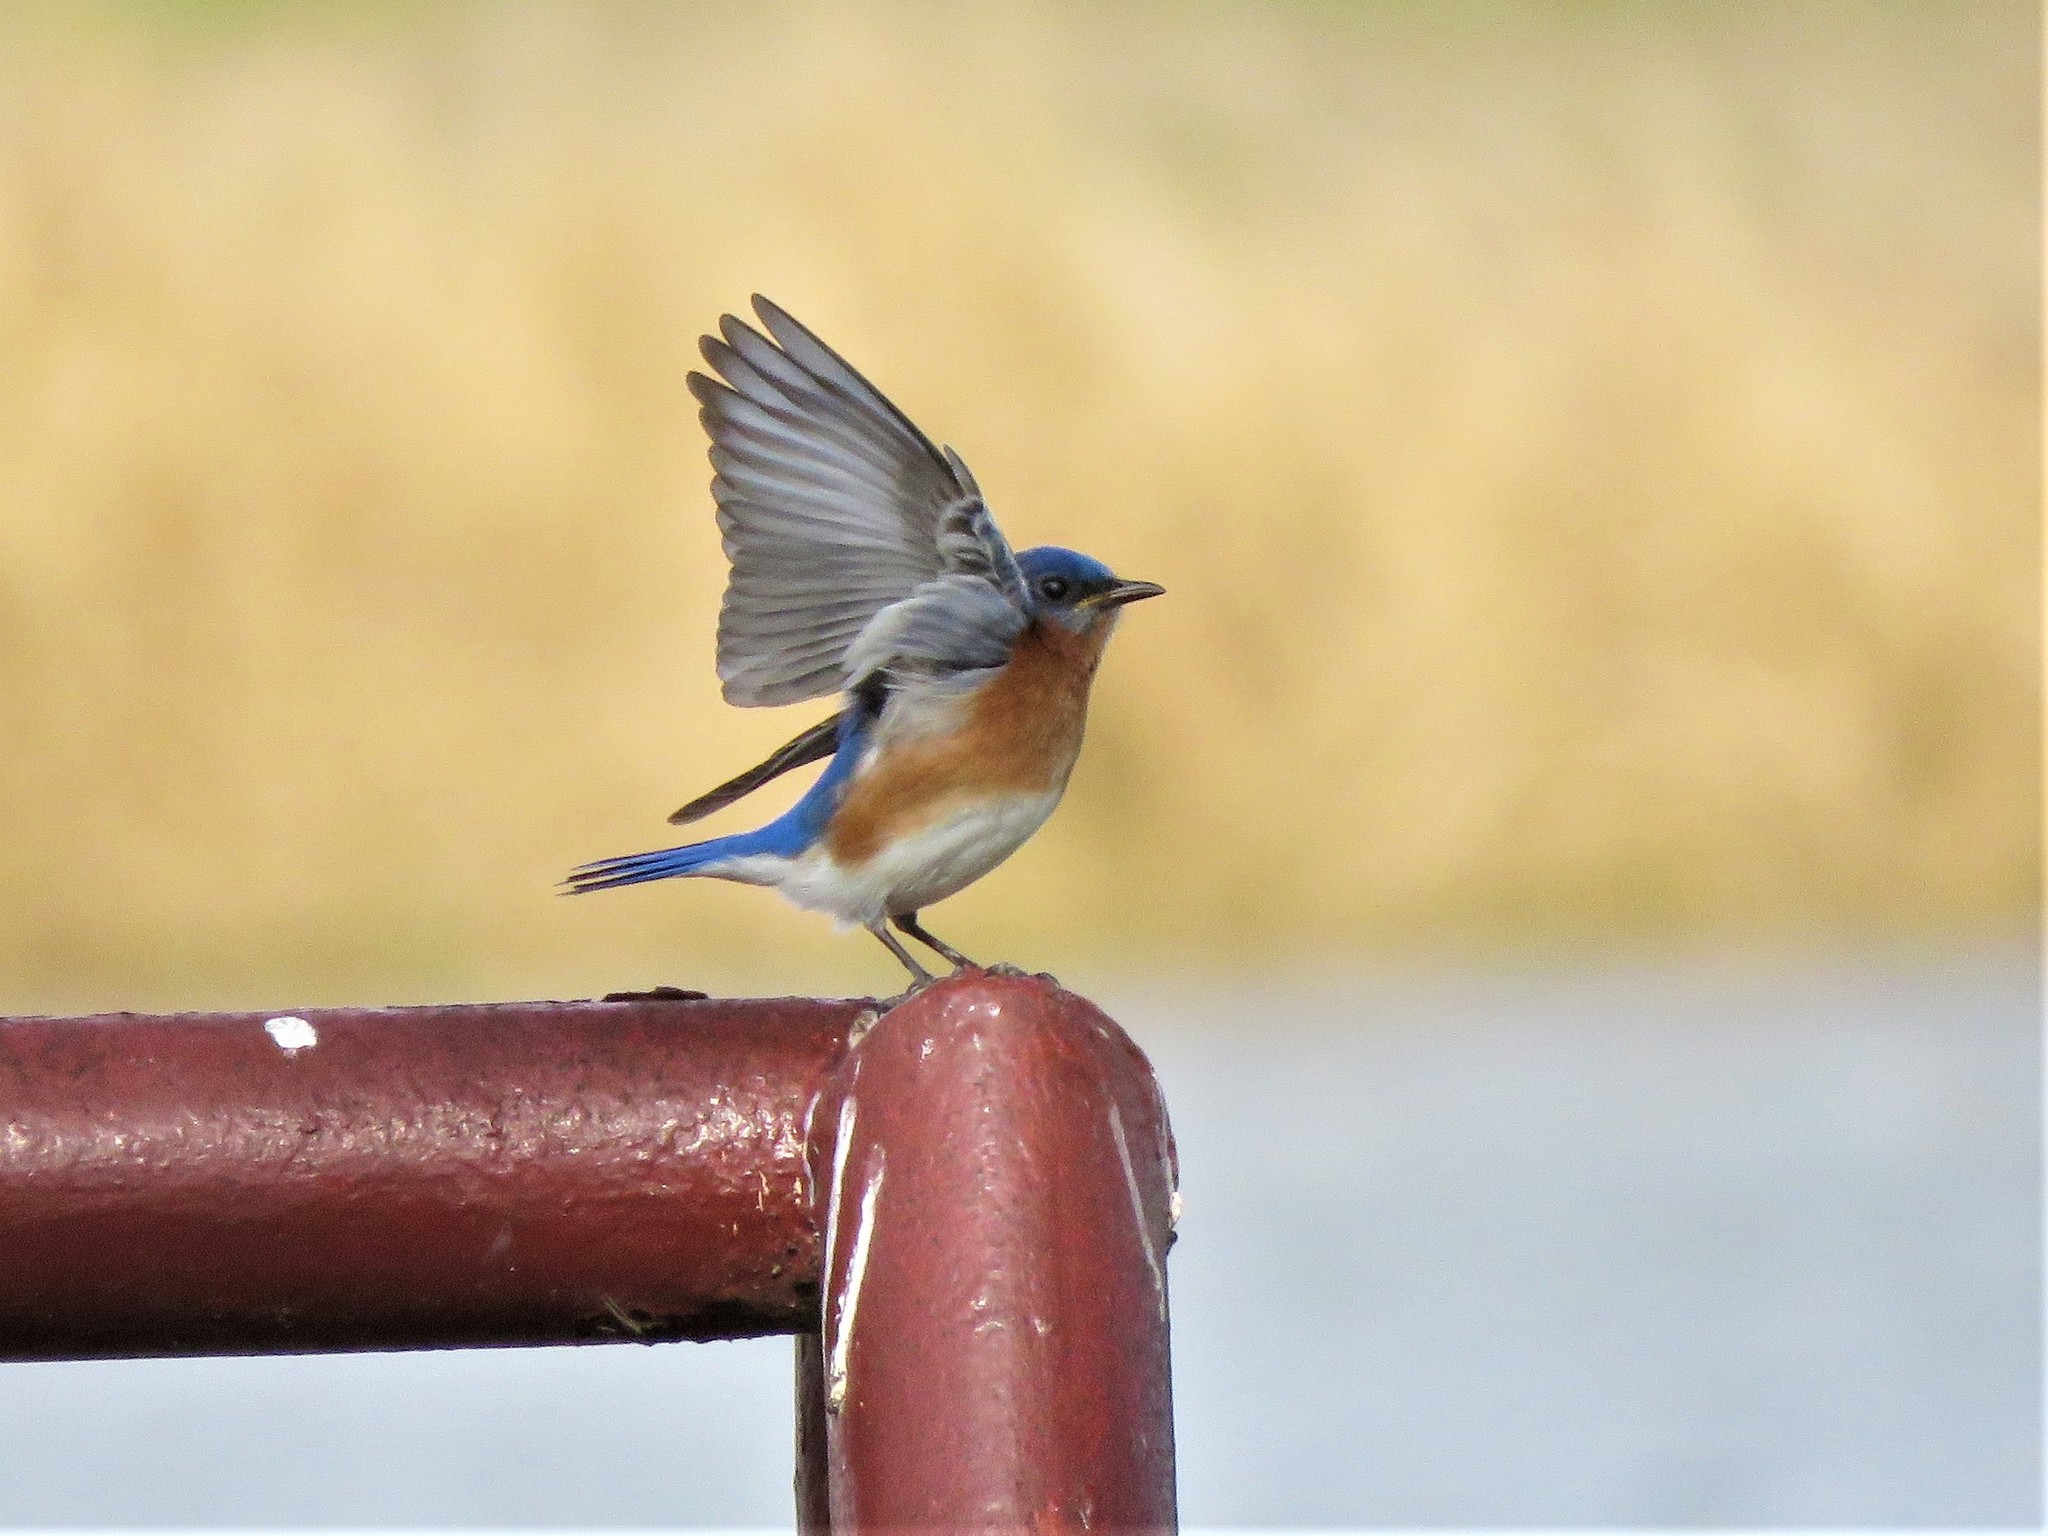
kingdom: Animalia
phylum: Chordata
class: Aves
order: Passeriformes
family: Turdidae
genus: Sialia
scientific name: Sialia sialis
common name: Eastern bluebird
